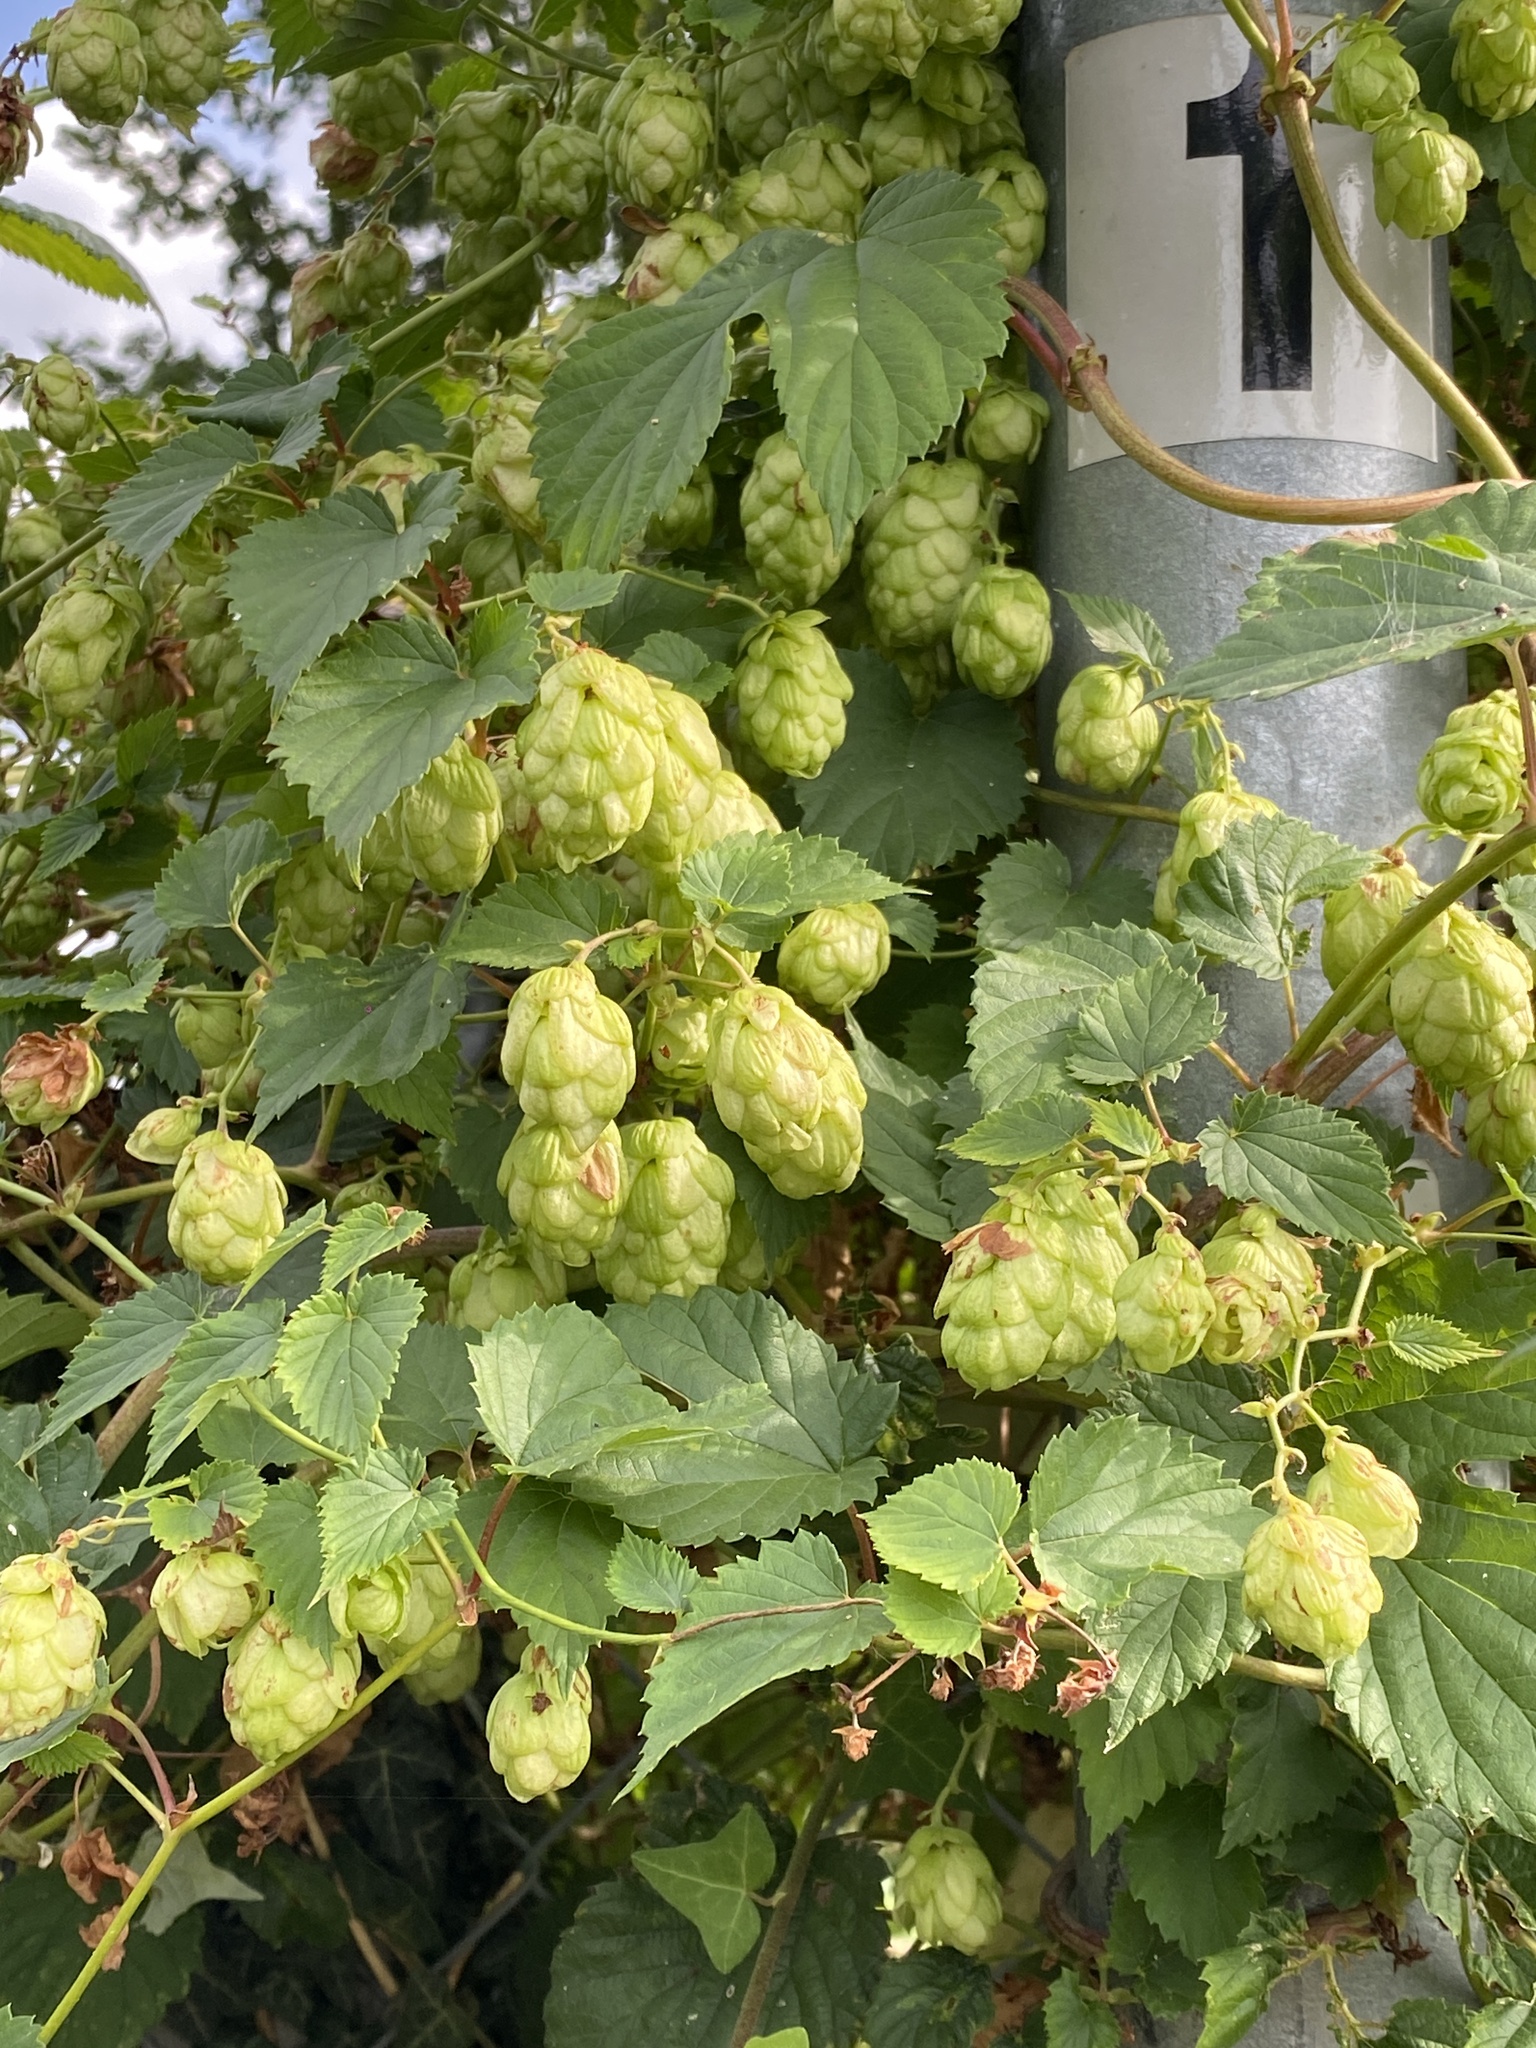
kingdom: Plantae
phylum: Tracheophyta
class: Magnoliopsida
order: Rosales
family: Cannabaceae
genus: Humulus
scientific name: Humulus lupulus
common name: Hop
